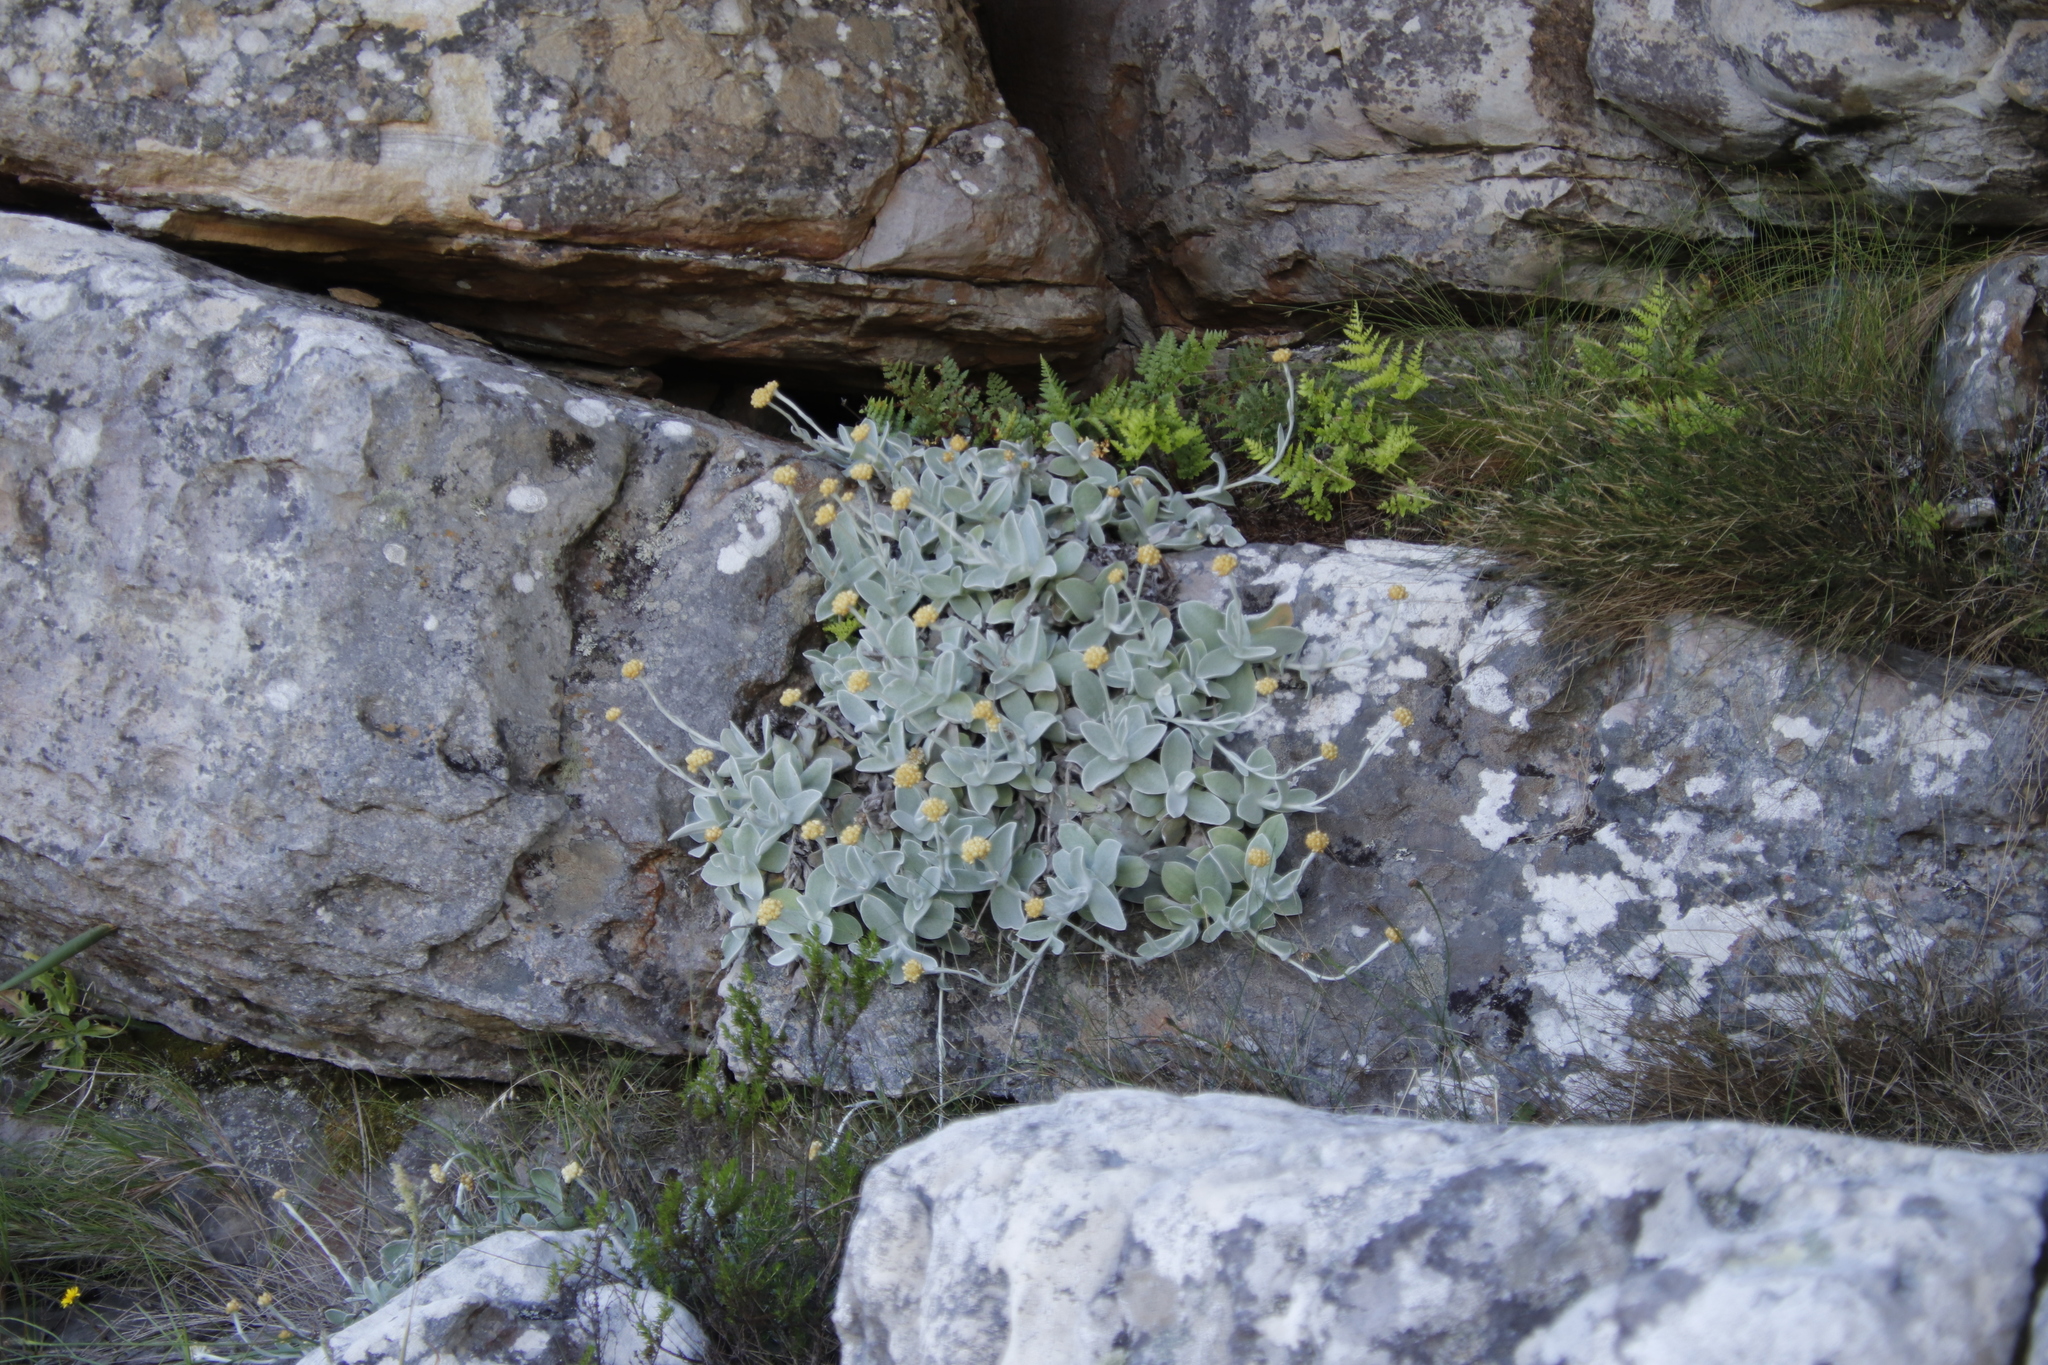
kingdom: Plantae
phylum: Tracheophyta
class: Magnoliopsida
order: Asterales
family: Asteraceae
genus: Helichrysum
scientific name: Helichrysum grandiflorum
